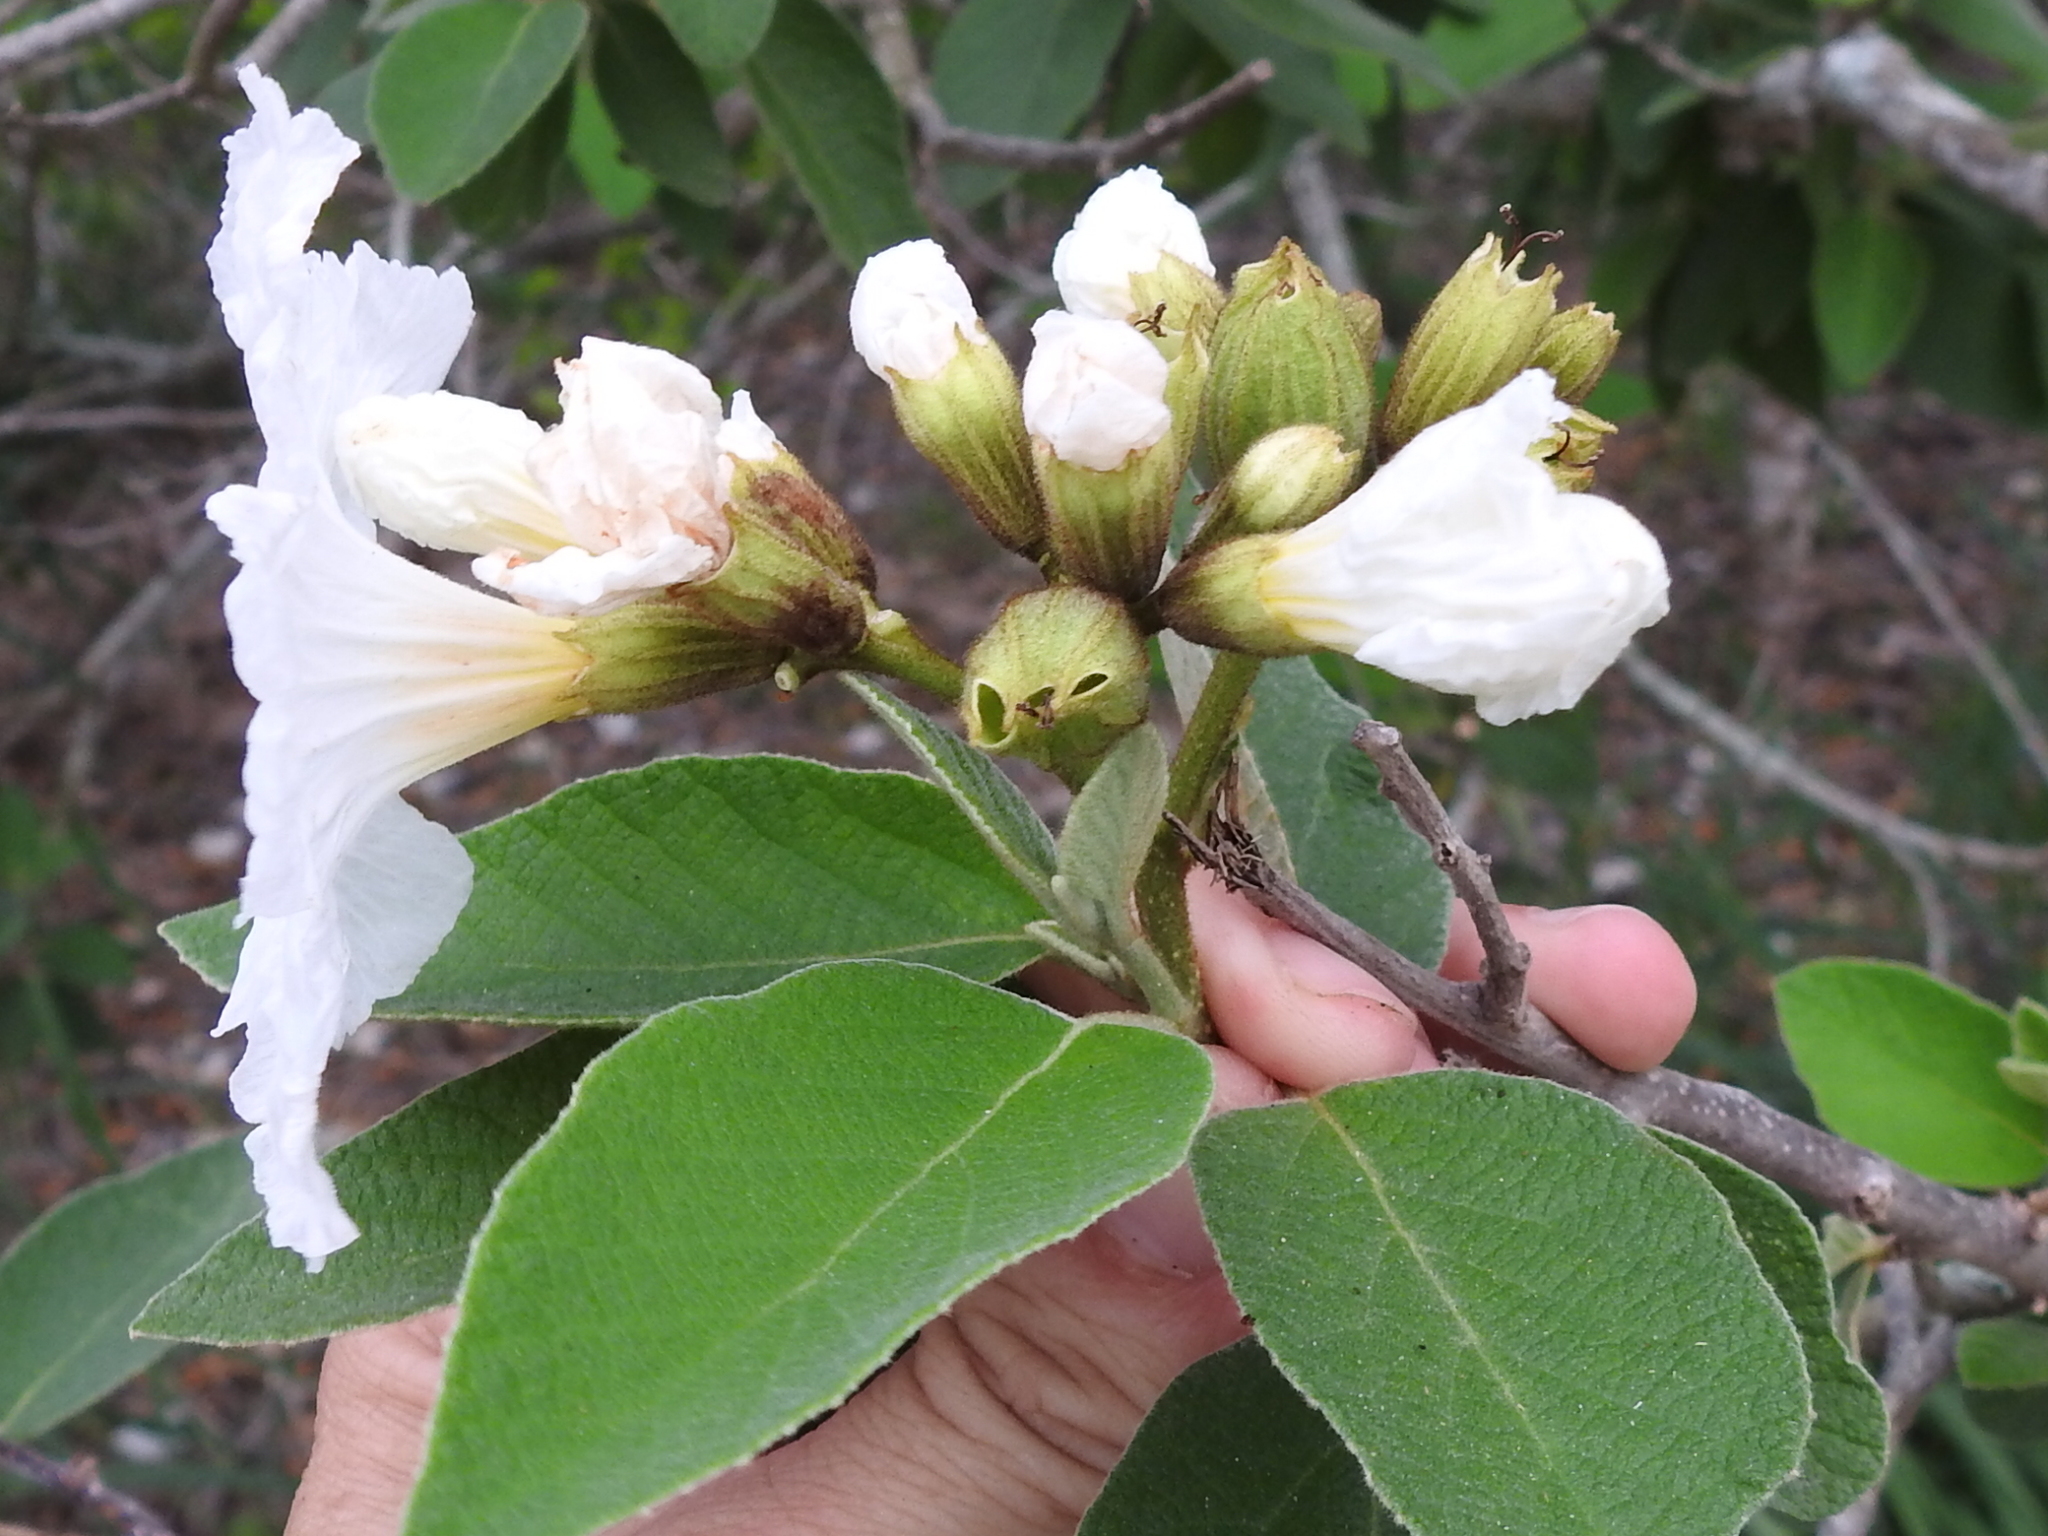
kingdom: Plantae
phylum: Tracheophyta
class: Magnoliopsida
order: Boraginales
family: Cordiaceae
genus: Cordia
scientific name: Cordia boissieri
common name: Mexican-olive
